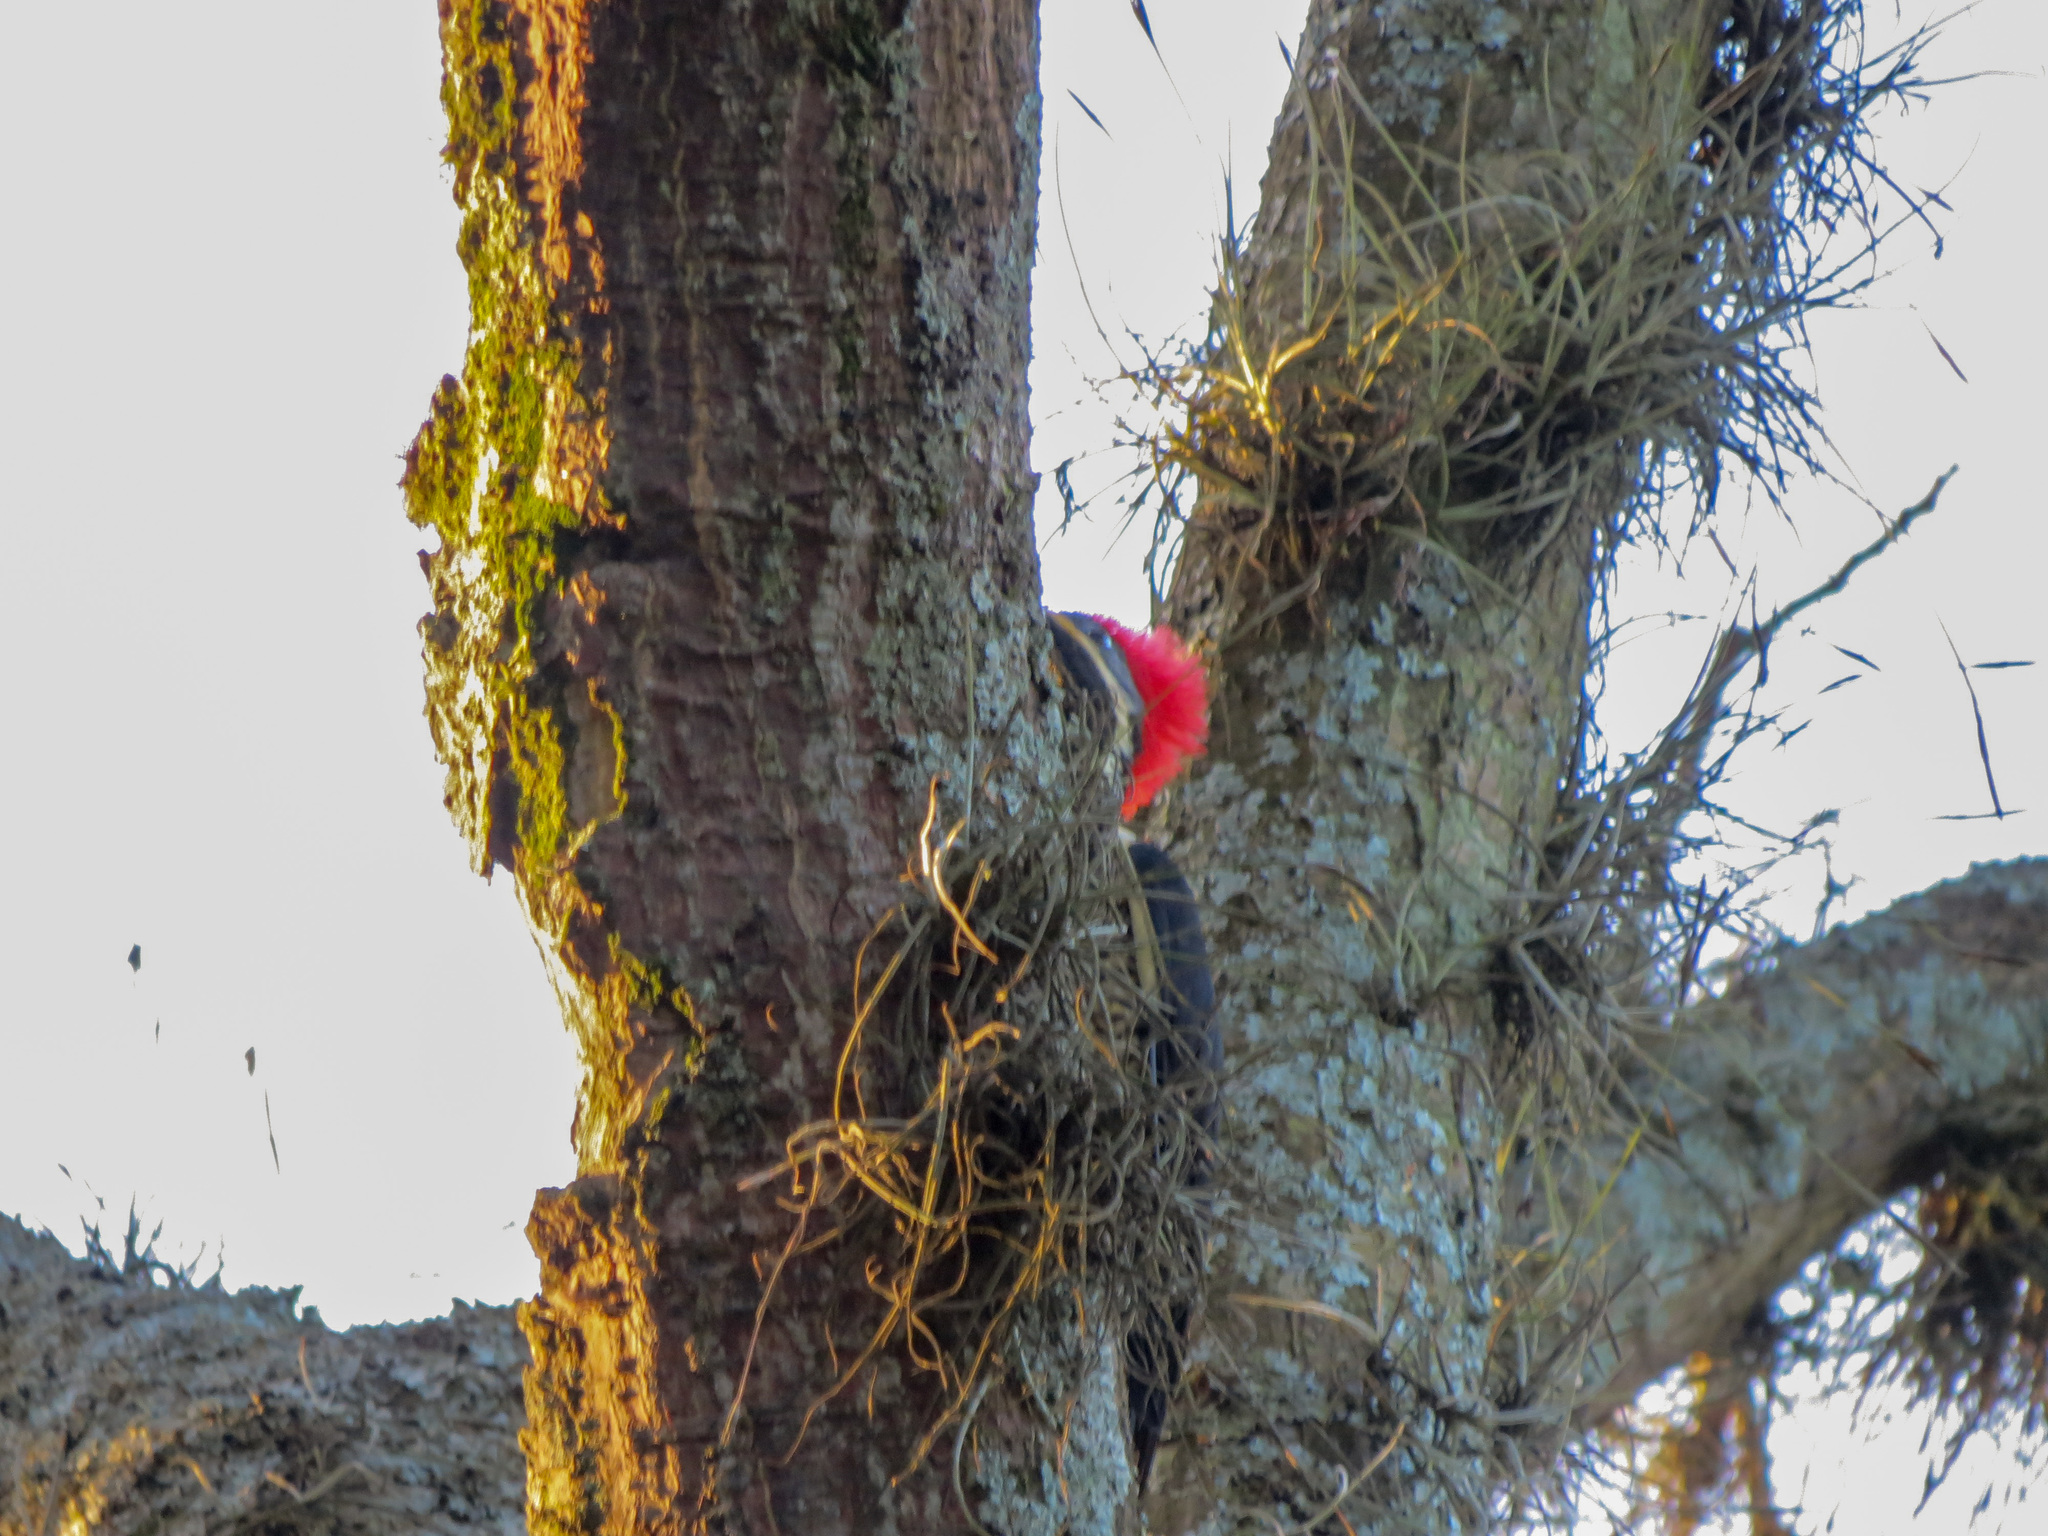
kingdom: Animalia
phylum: Chordata
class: Aves
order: Piciformes
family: Picidae
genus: Dryocopus
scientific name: Dryocopus lineatus
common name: Lineated woodpecker
